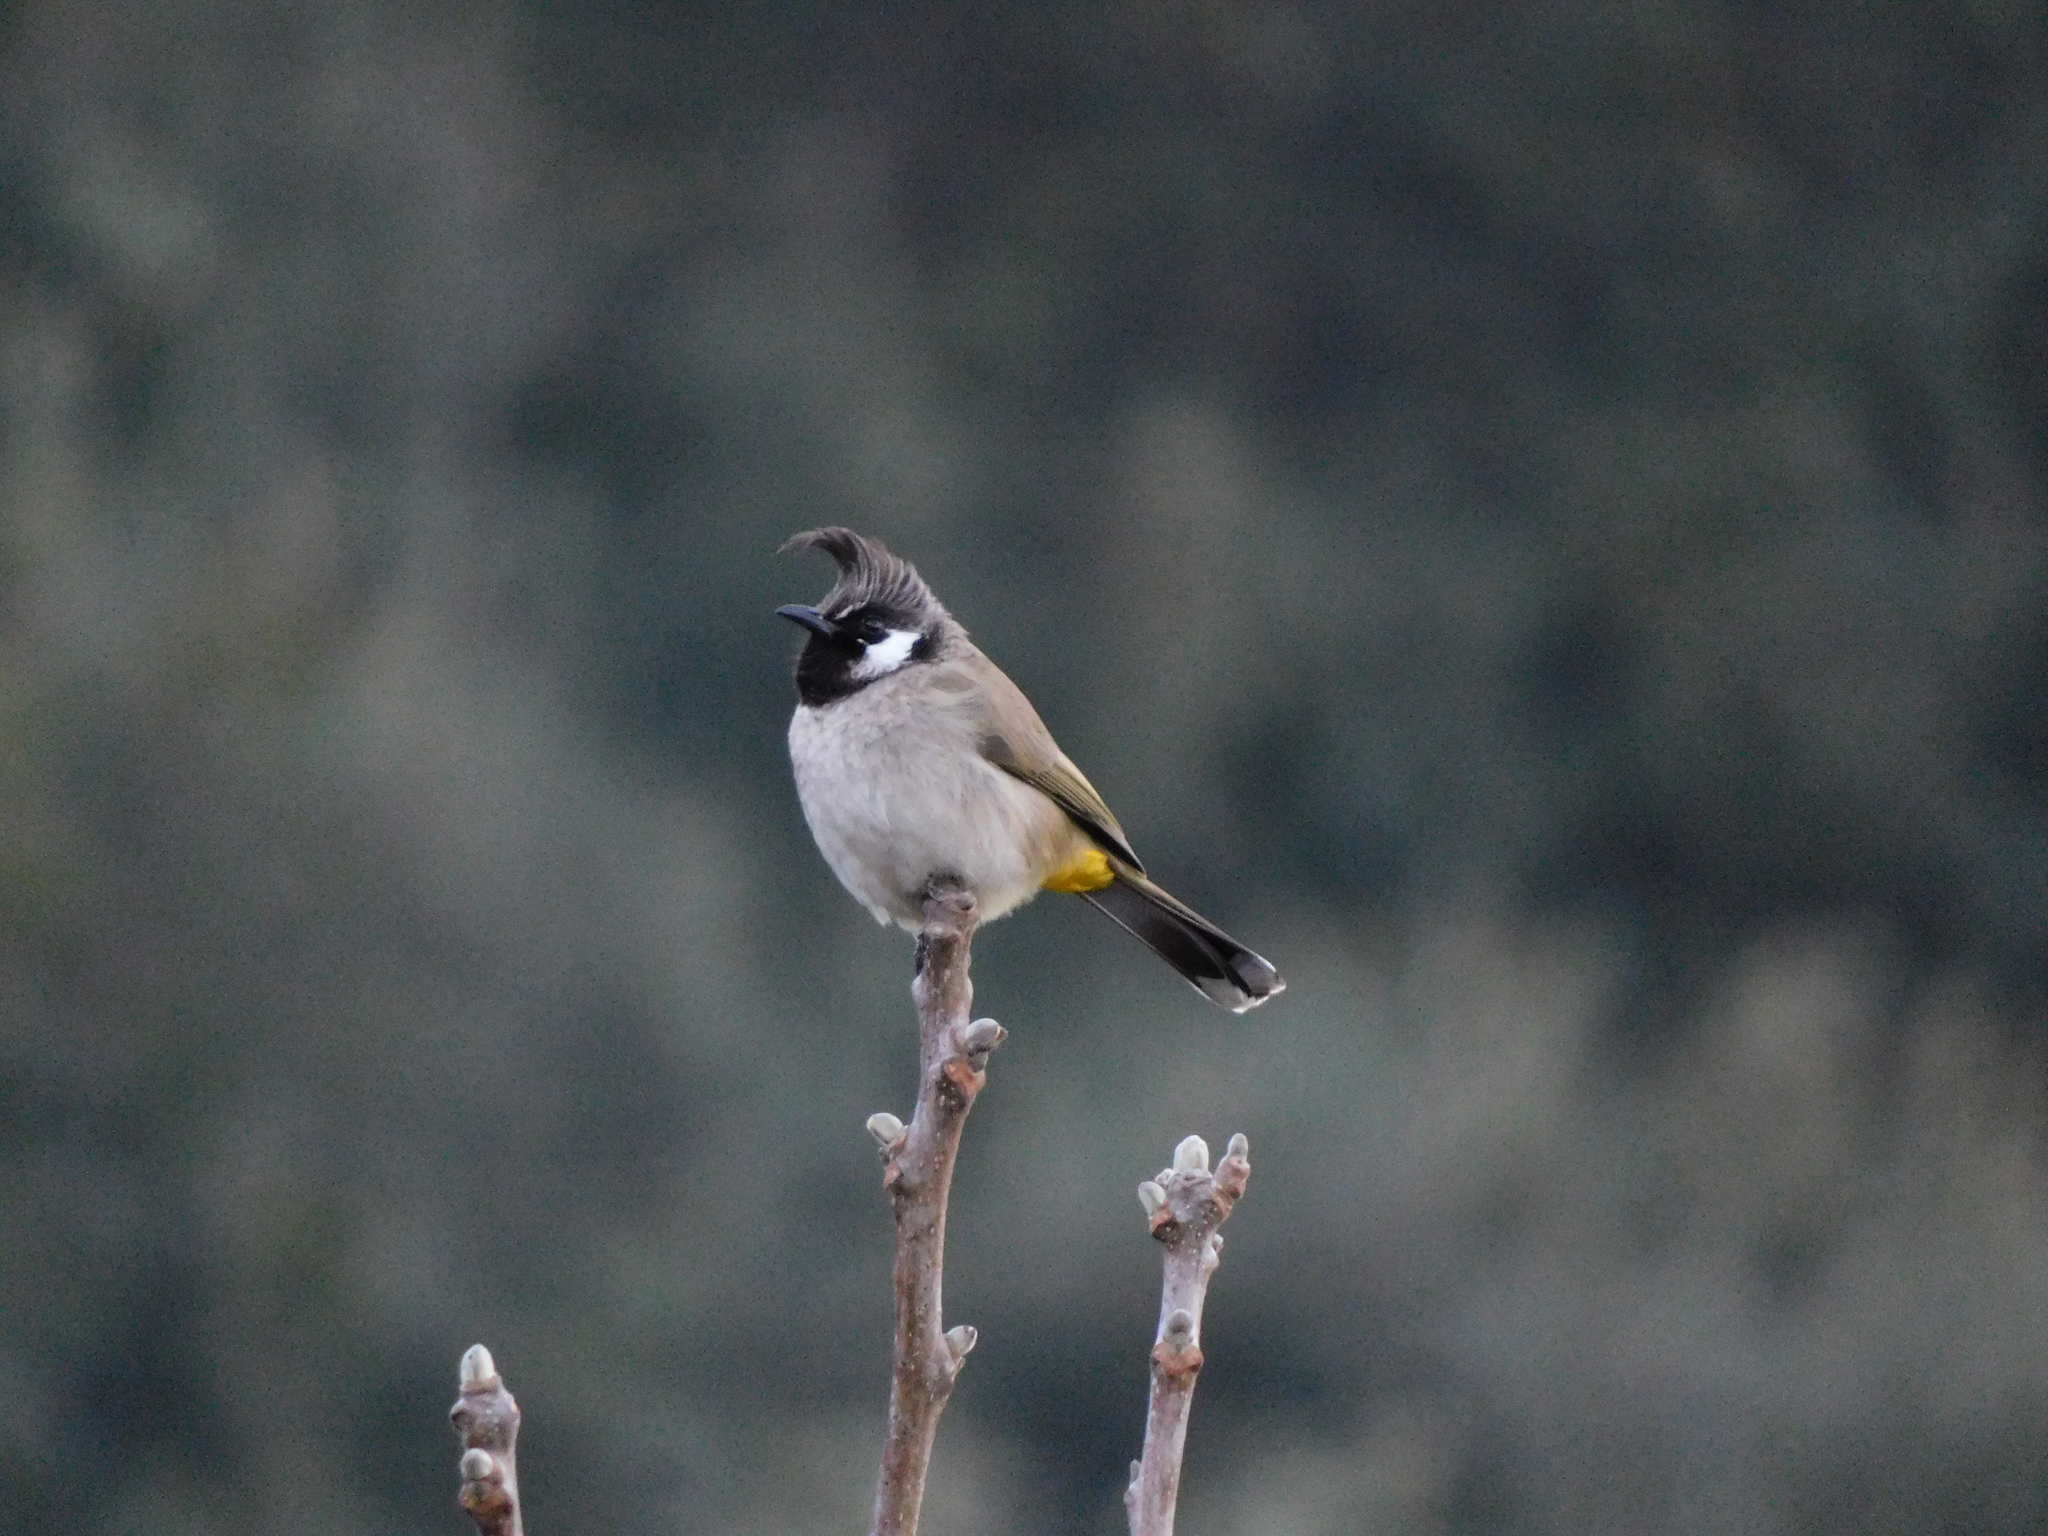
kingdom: Animalia
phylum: Chordata
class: Aves
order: Passeriformes
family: Pycnonotidae
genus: Pycnonotus
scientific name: Pycnonotus leucogenys
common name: Himalayan bulbul
